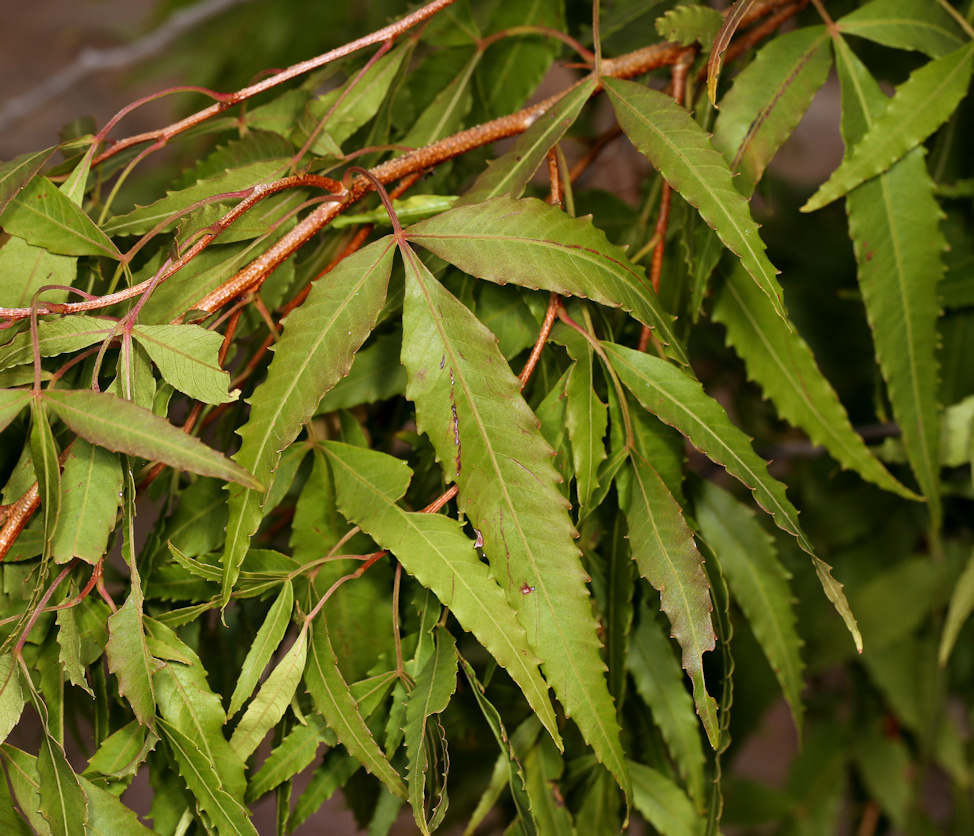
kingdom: Plantae
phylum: Tracheophyta
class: Magnoliopsida
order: Sapindales
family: Anacardiaceae
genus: Searsia
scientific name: Searsia leptodictya
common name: Mountain karee
